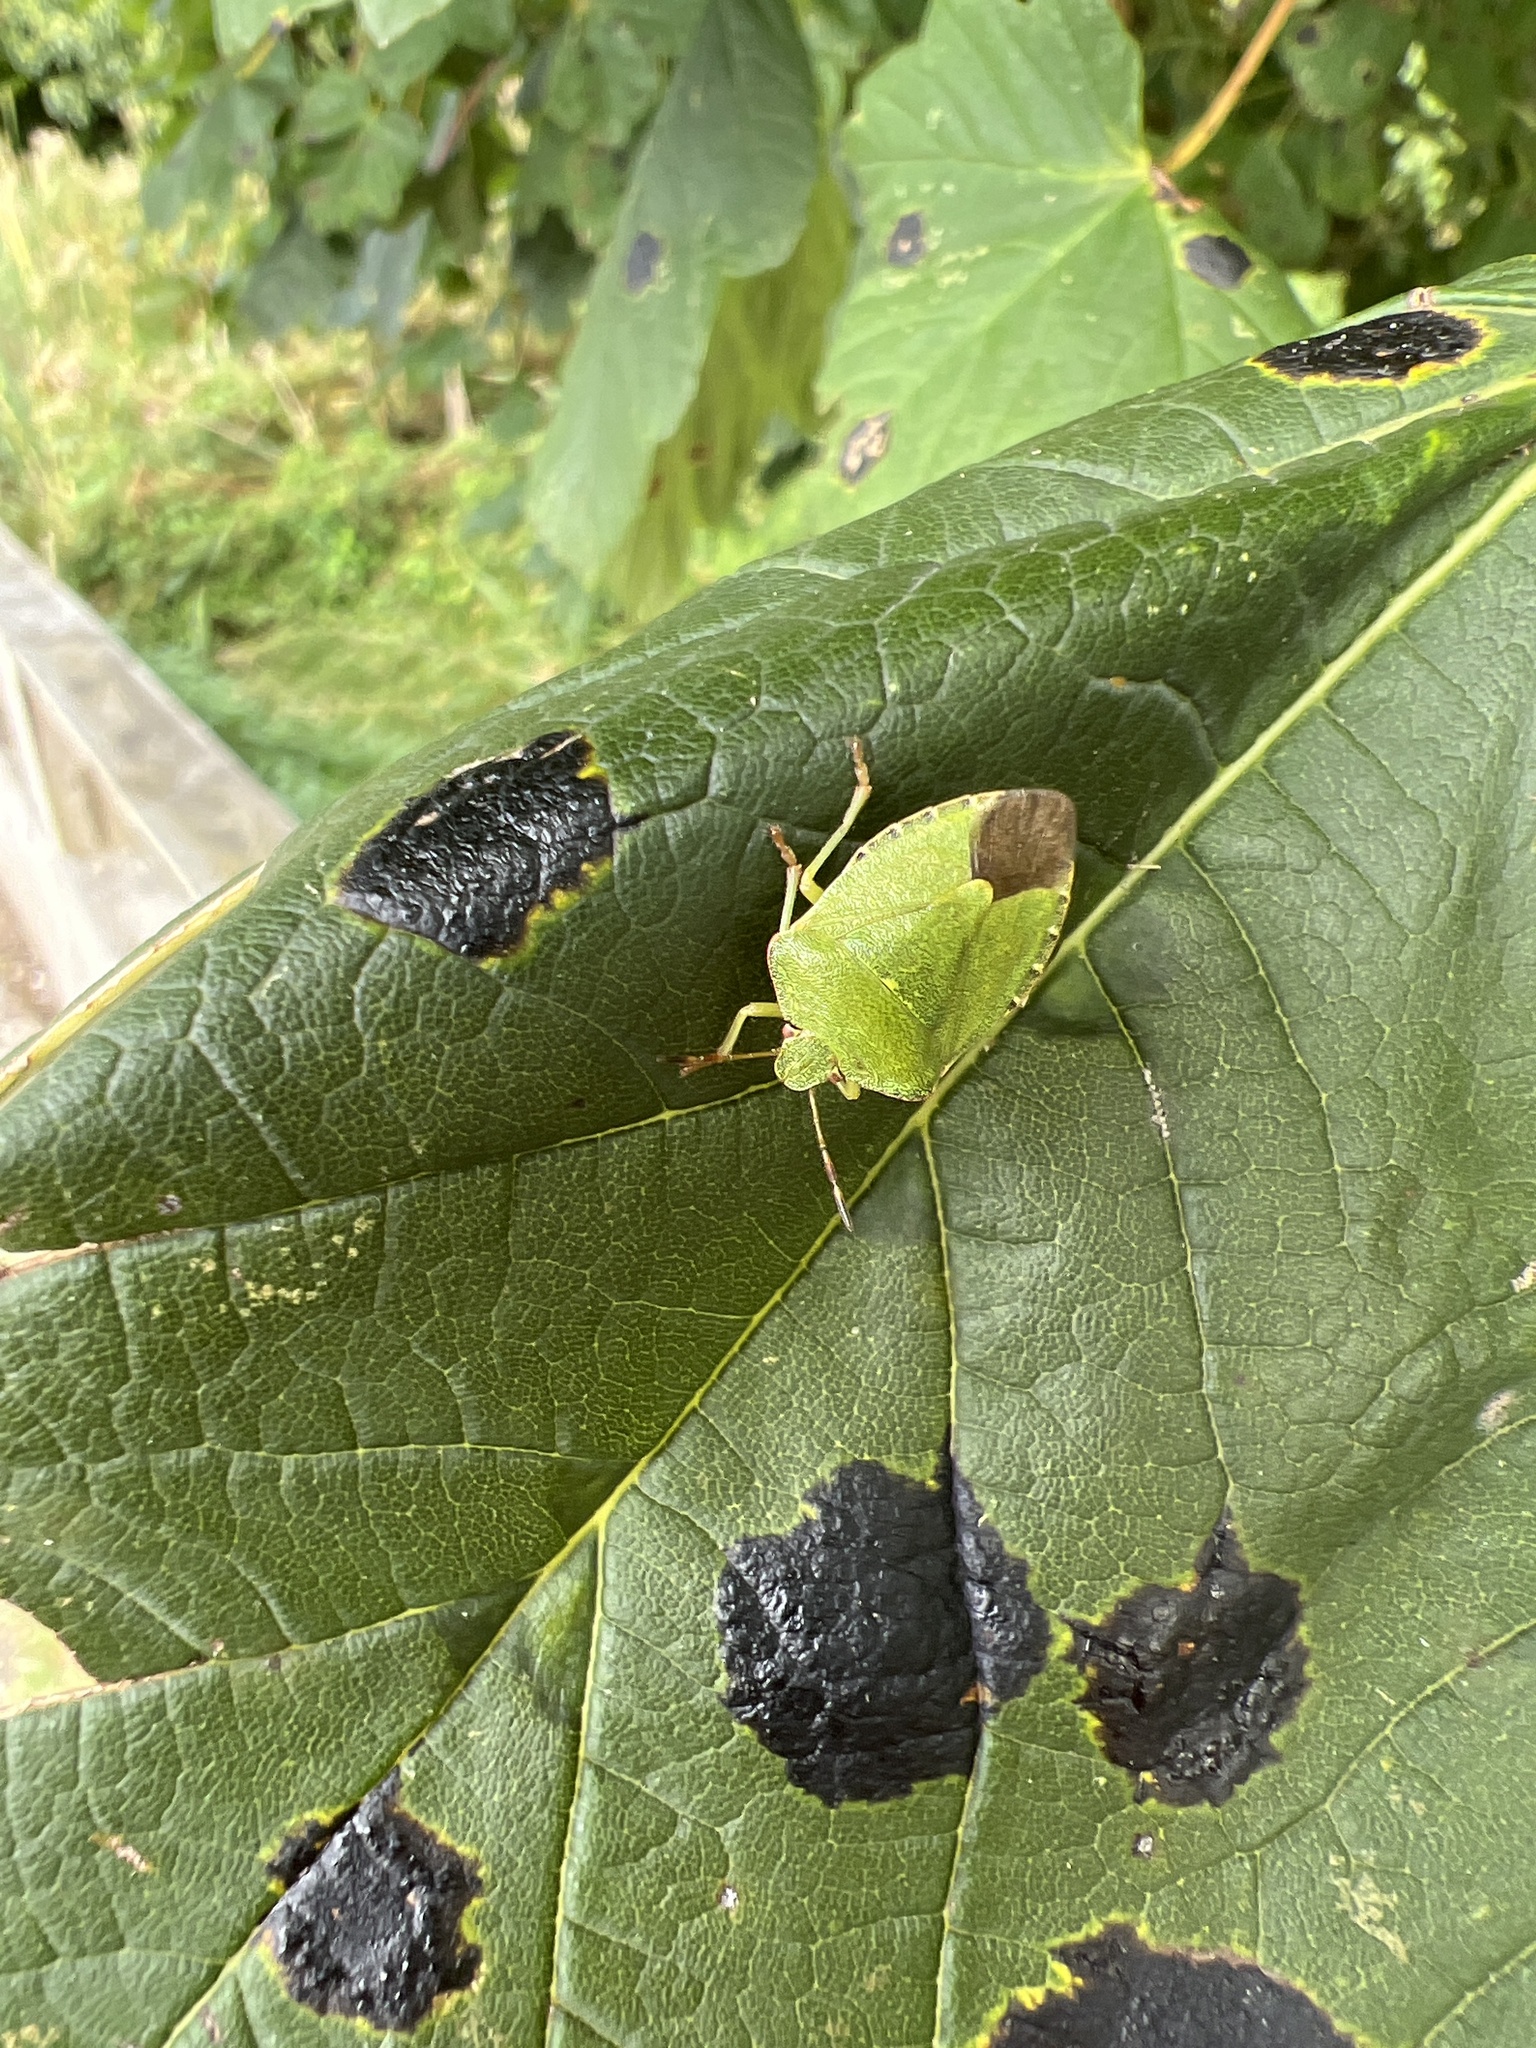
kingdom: Animalia
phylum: Arthropoda
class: Insecta
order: Hemiptera
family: Pentatomidae
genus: Palomena
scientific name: Palomena prasina
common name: Green shieldbug
